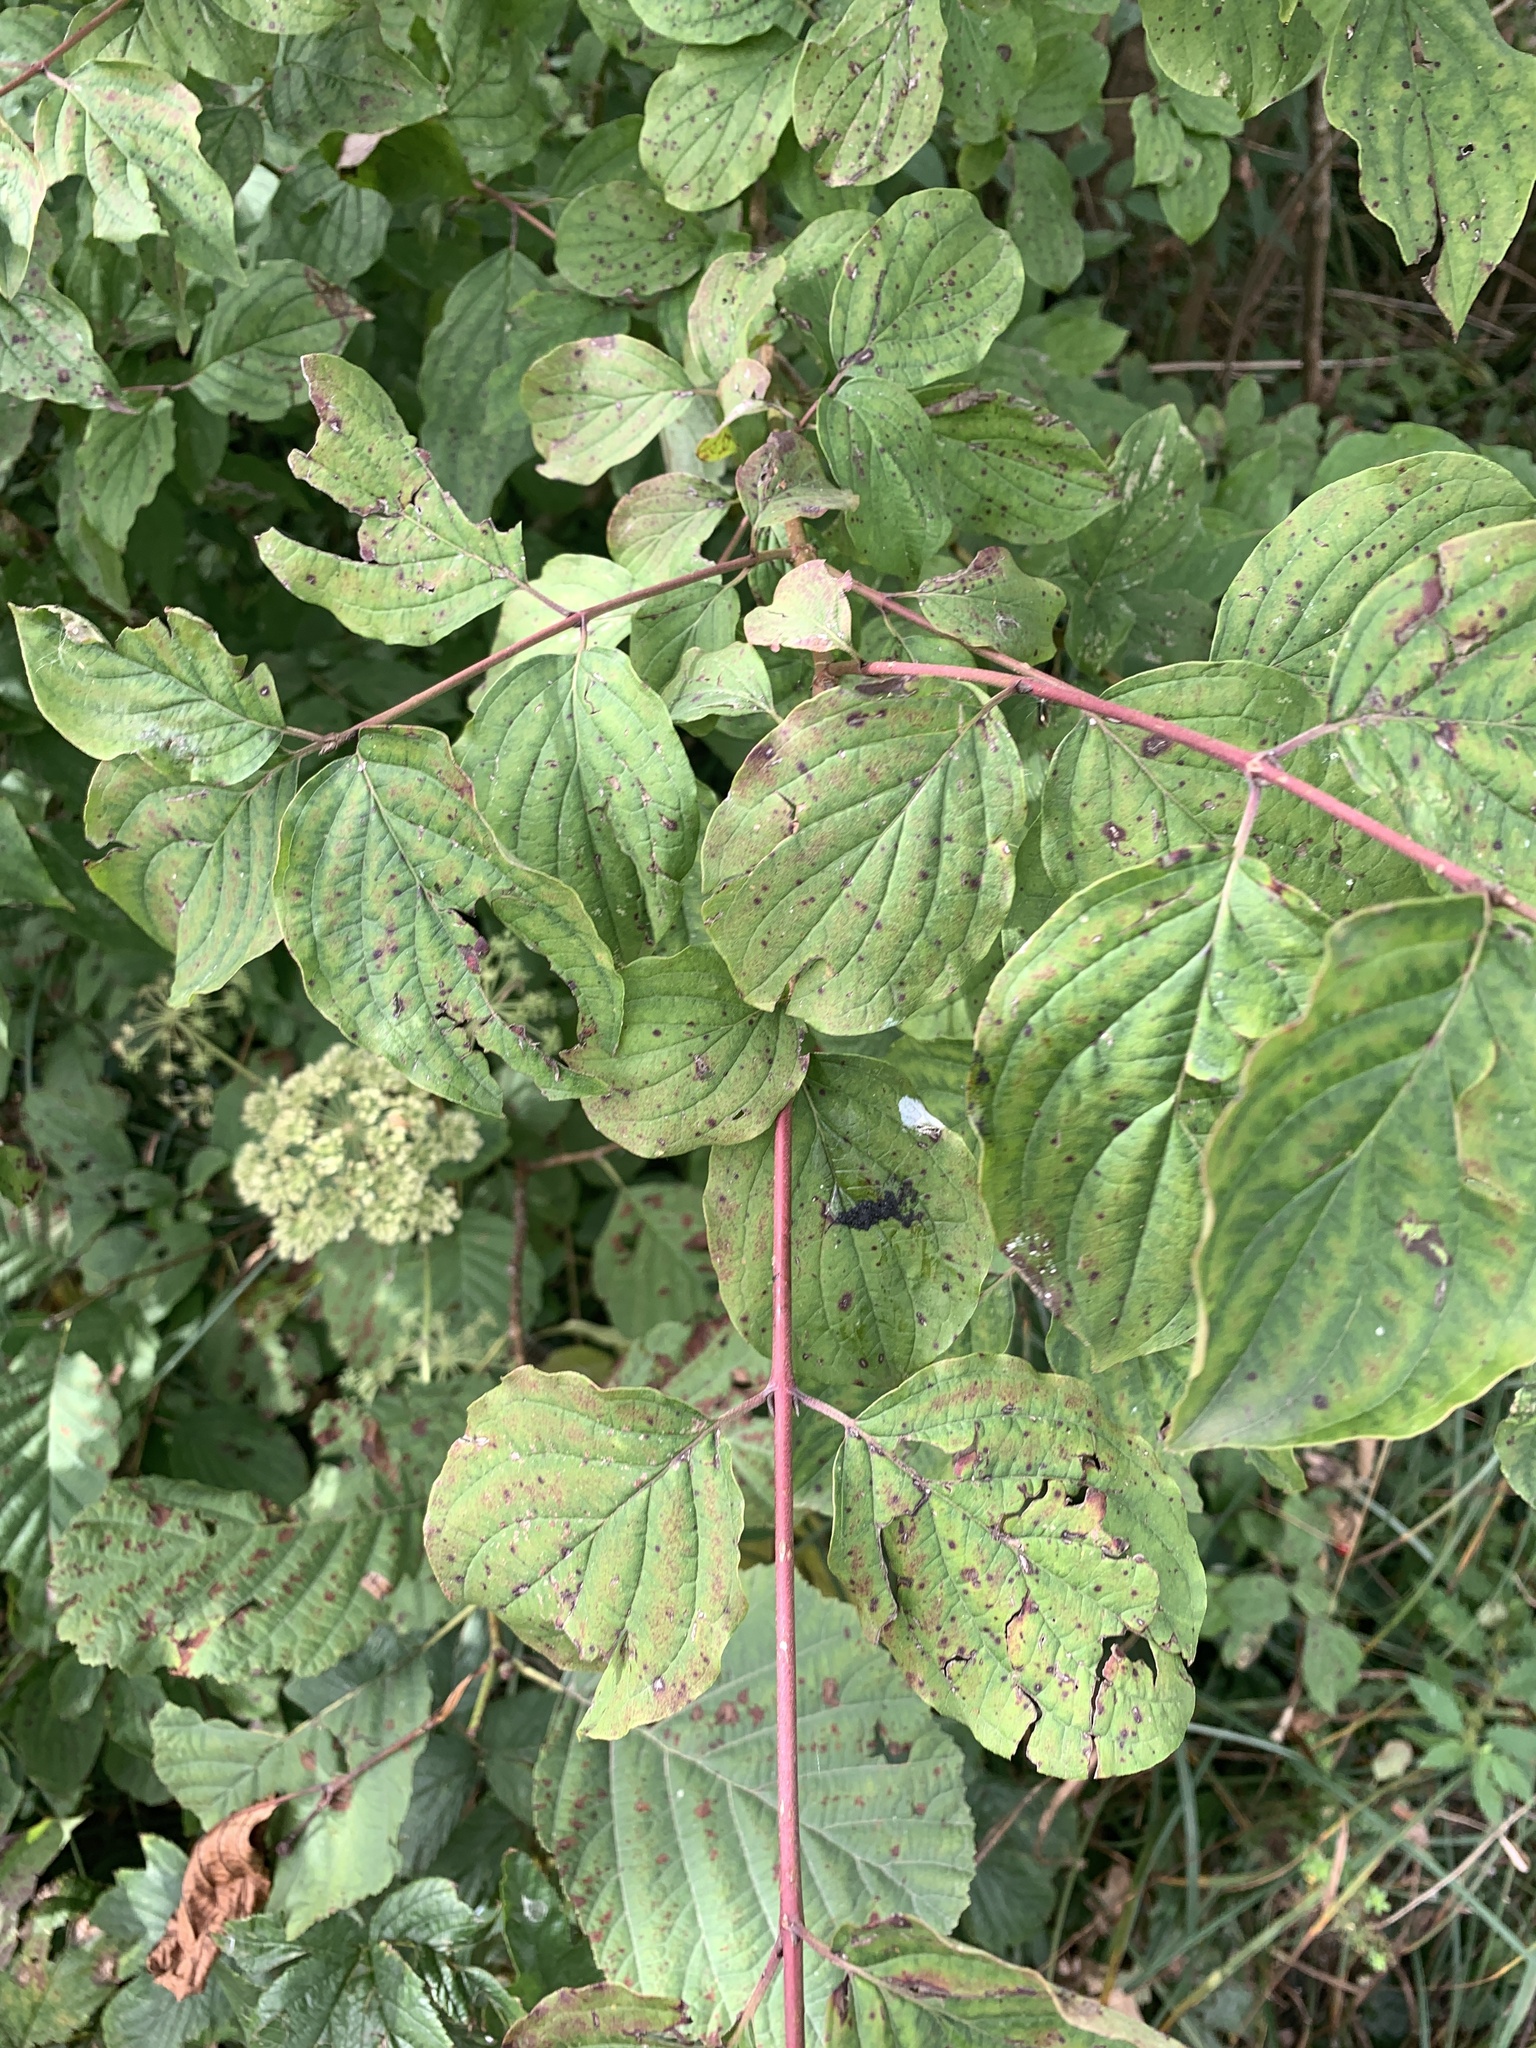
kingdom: Plantae
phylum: Tracheophyta
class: Magnoliopsida
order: Cornales
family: Cornaceae
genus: Cornus
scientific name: Cornus sanguinea
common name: Dogwood
